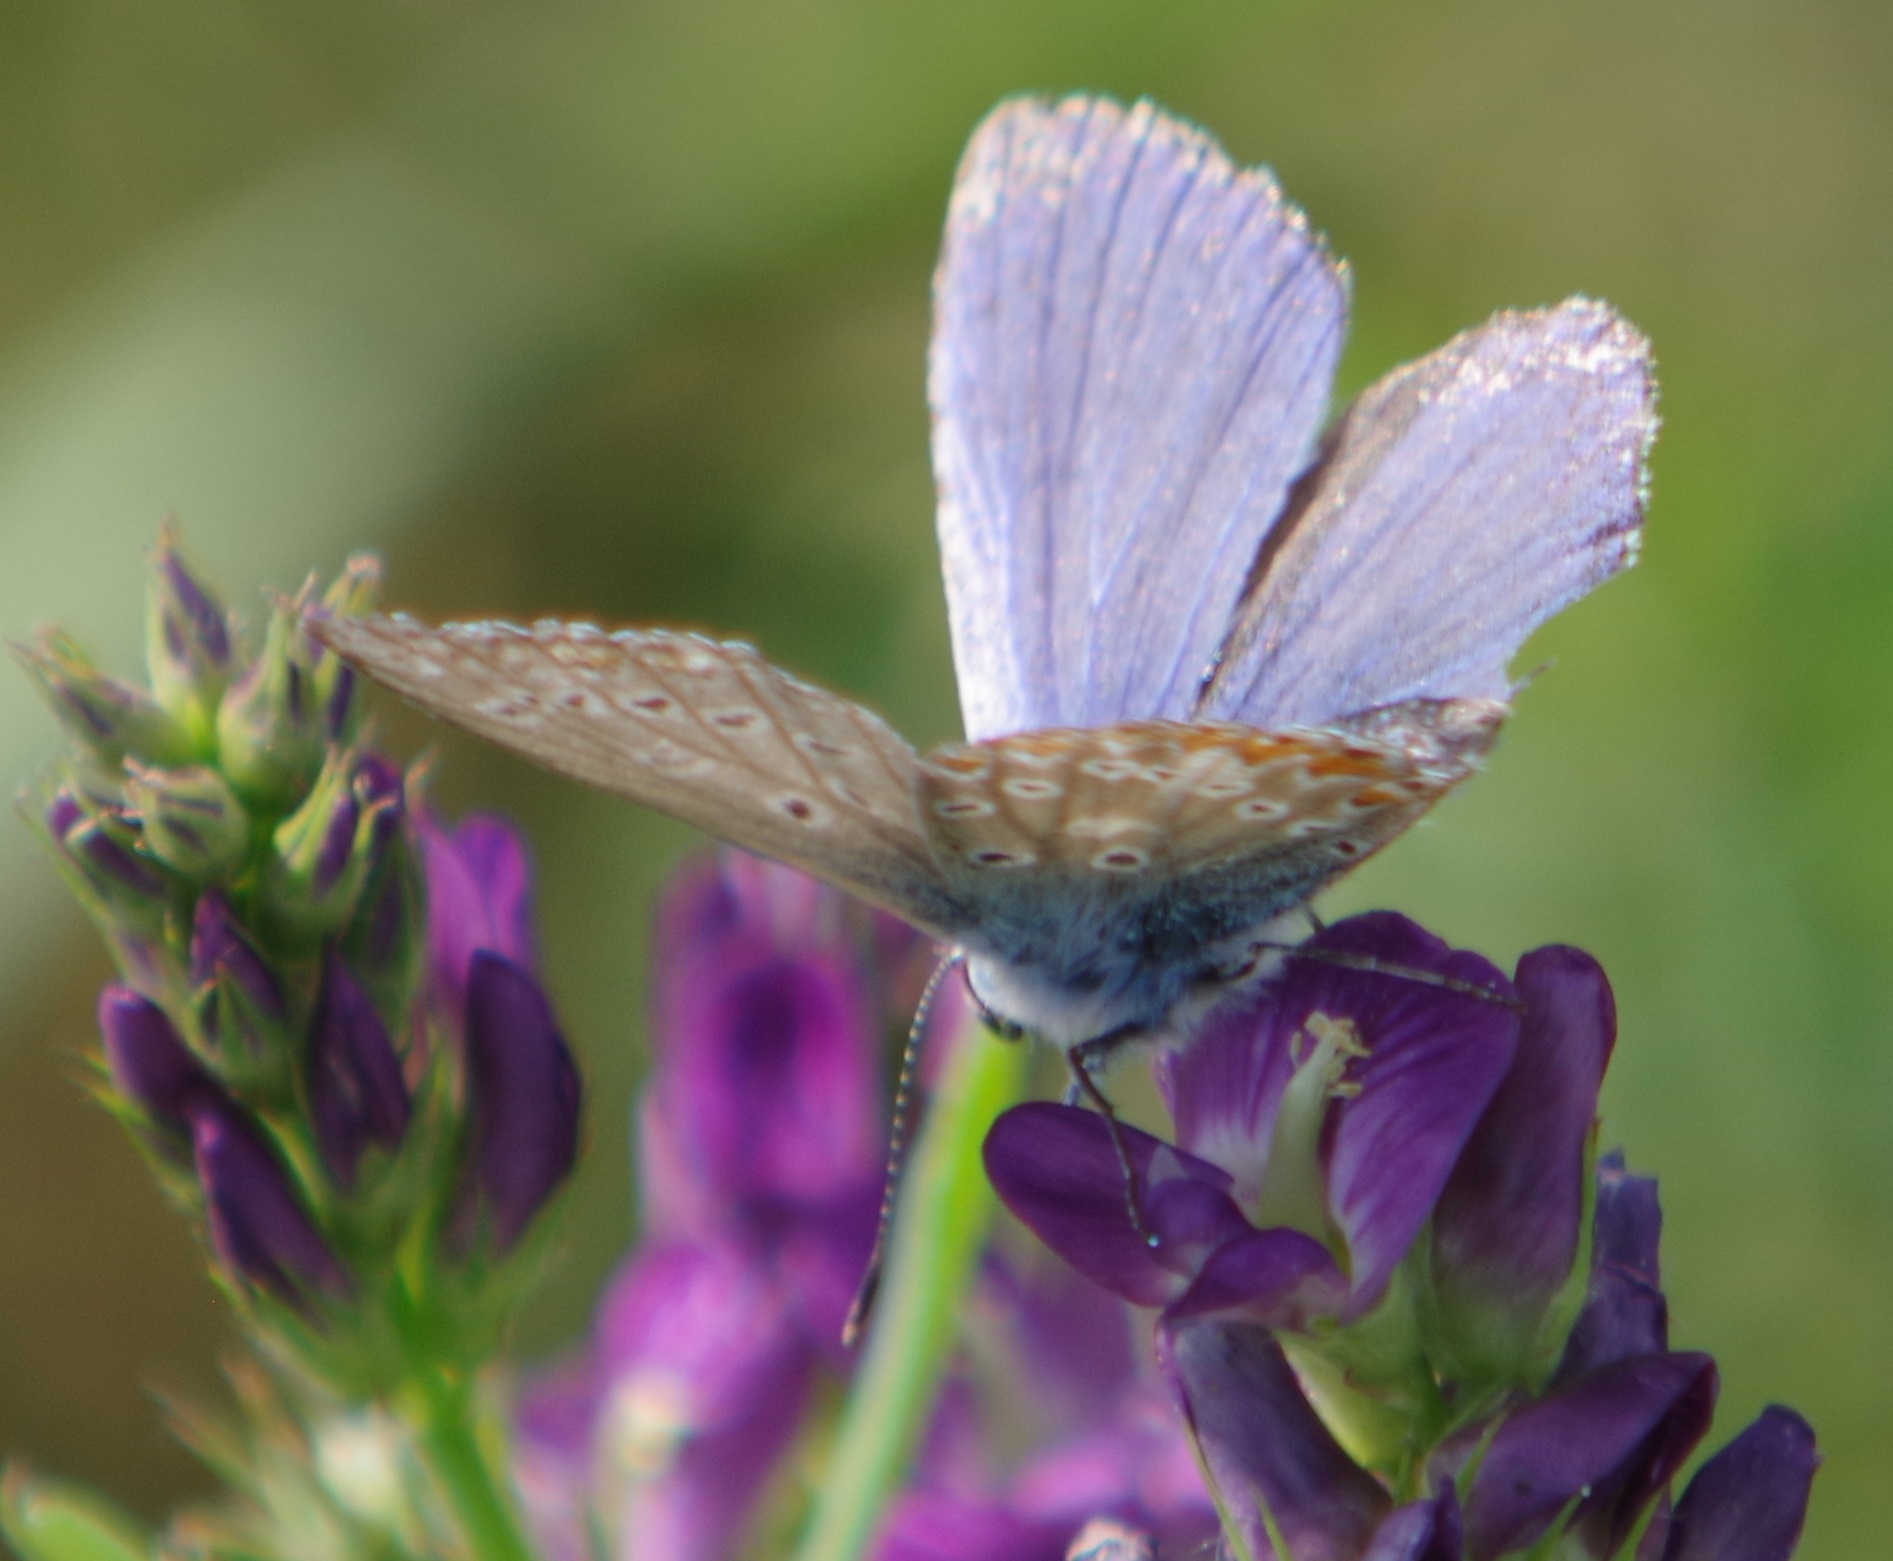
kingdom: Animalia
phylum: Arthropoda
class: Insecta
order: Lepidoptera
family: Lycaenidae
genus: Polyommatus
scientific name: Polyommatus icarus
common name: Common blue
